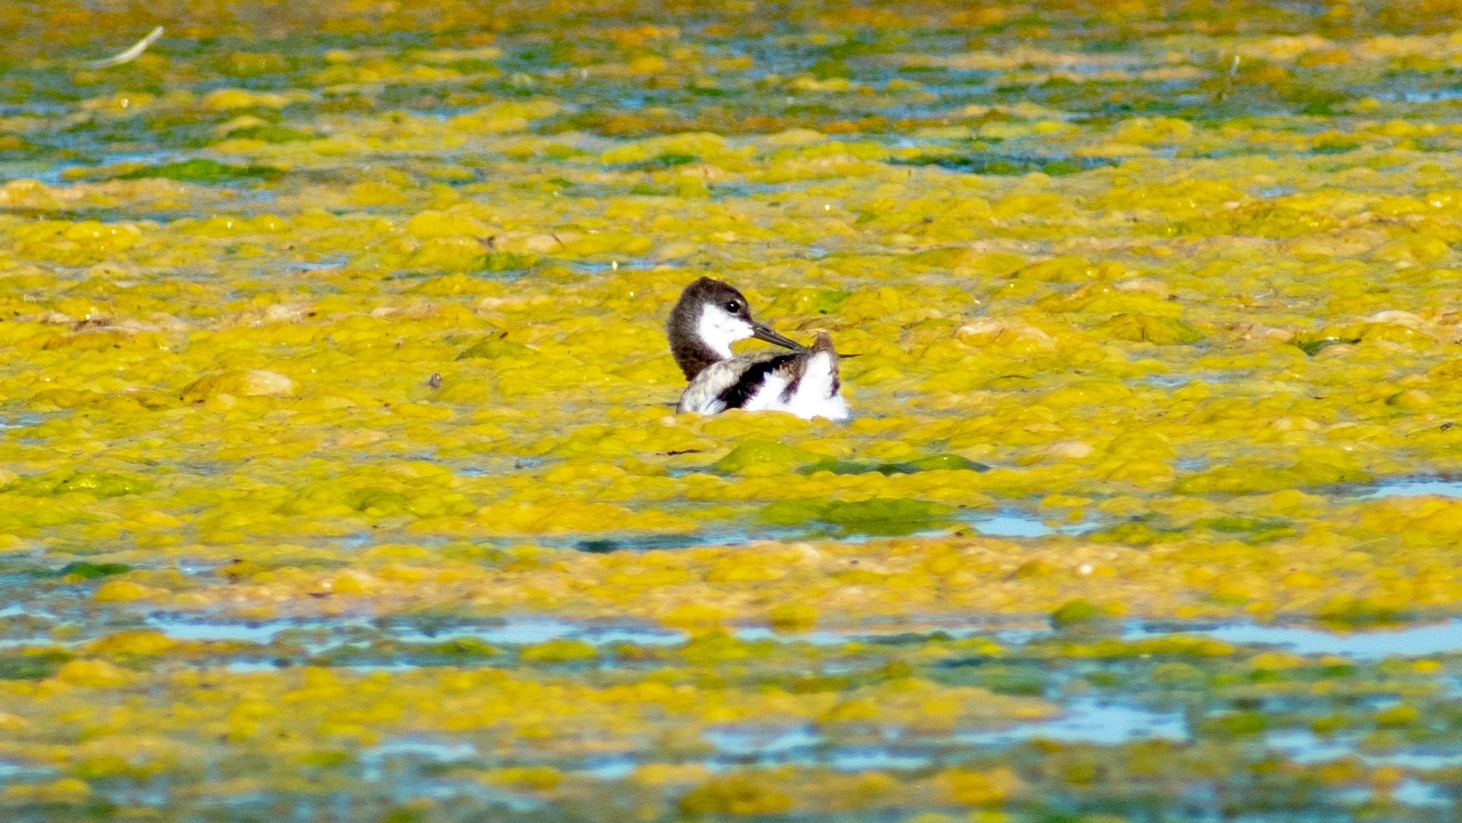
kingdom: Animalia
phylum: Chordata
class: Aves
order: Charadriiformes
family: Recurvirostridae
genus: Recurvirostra
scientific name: Recurvirostra avosetta
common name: Pied avocet
